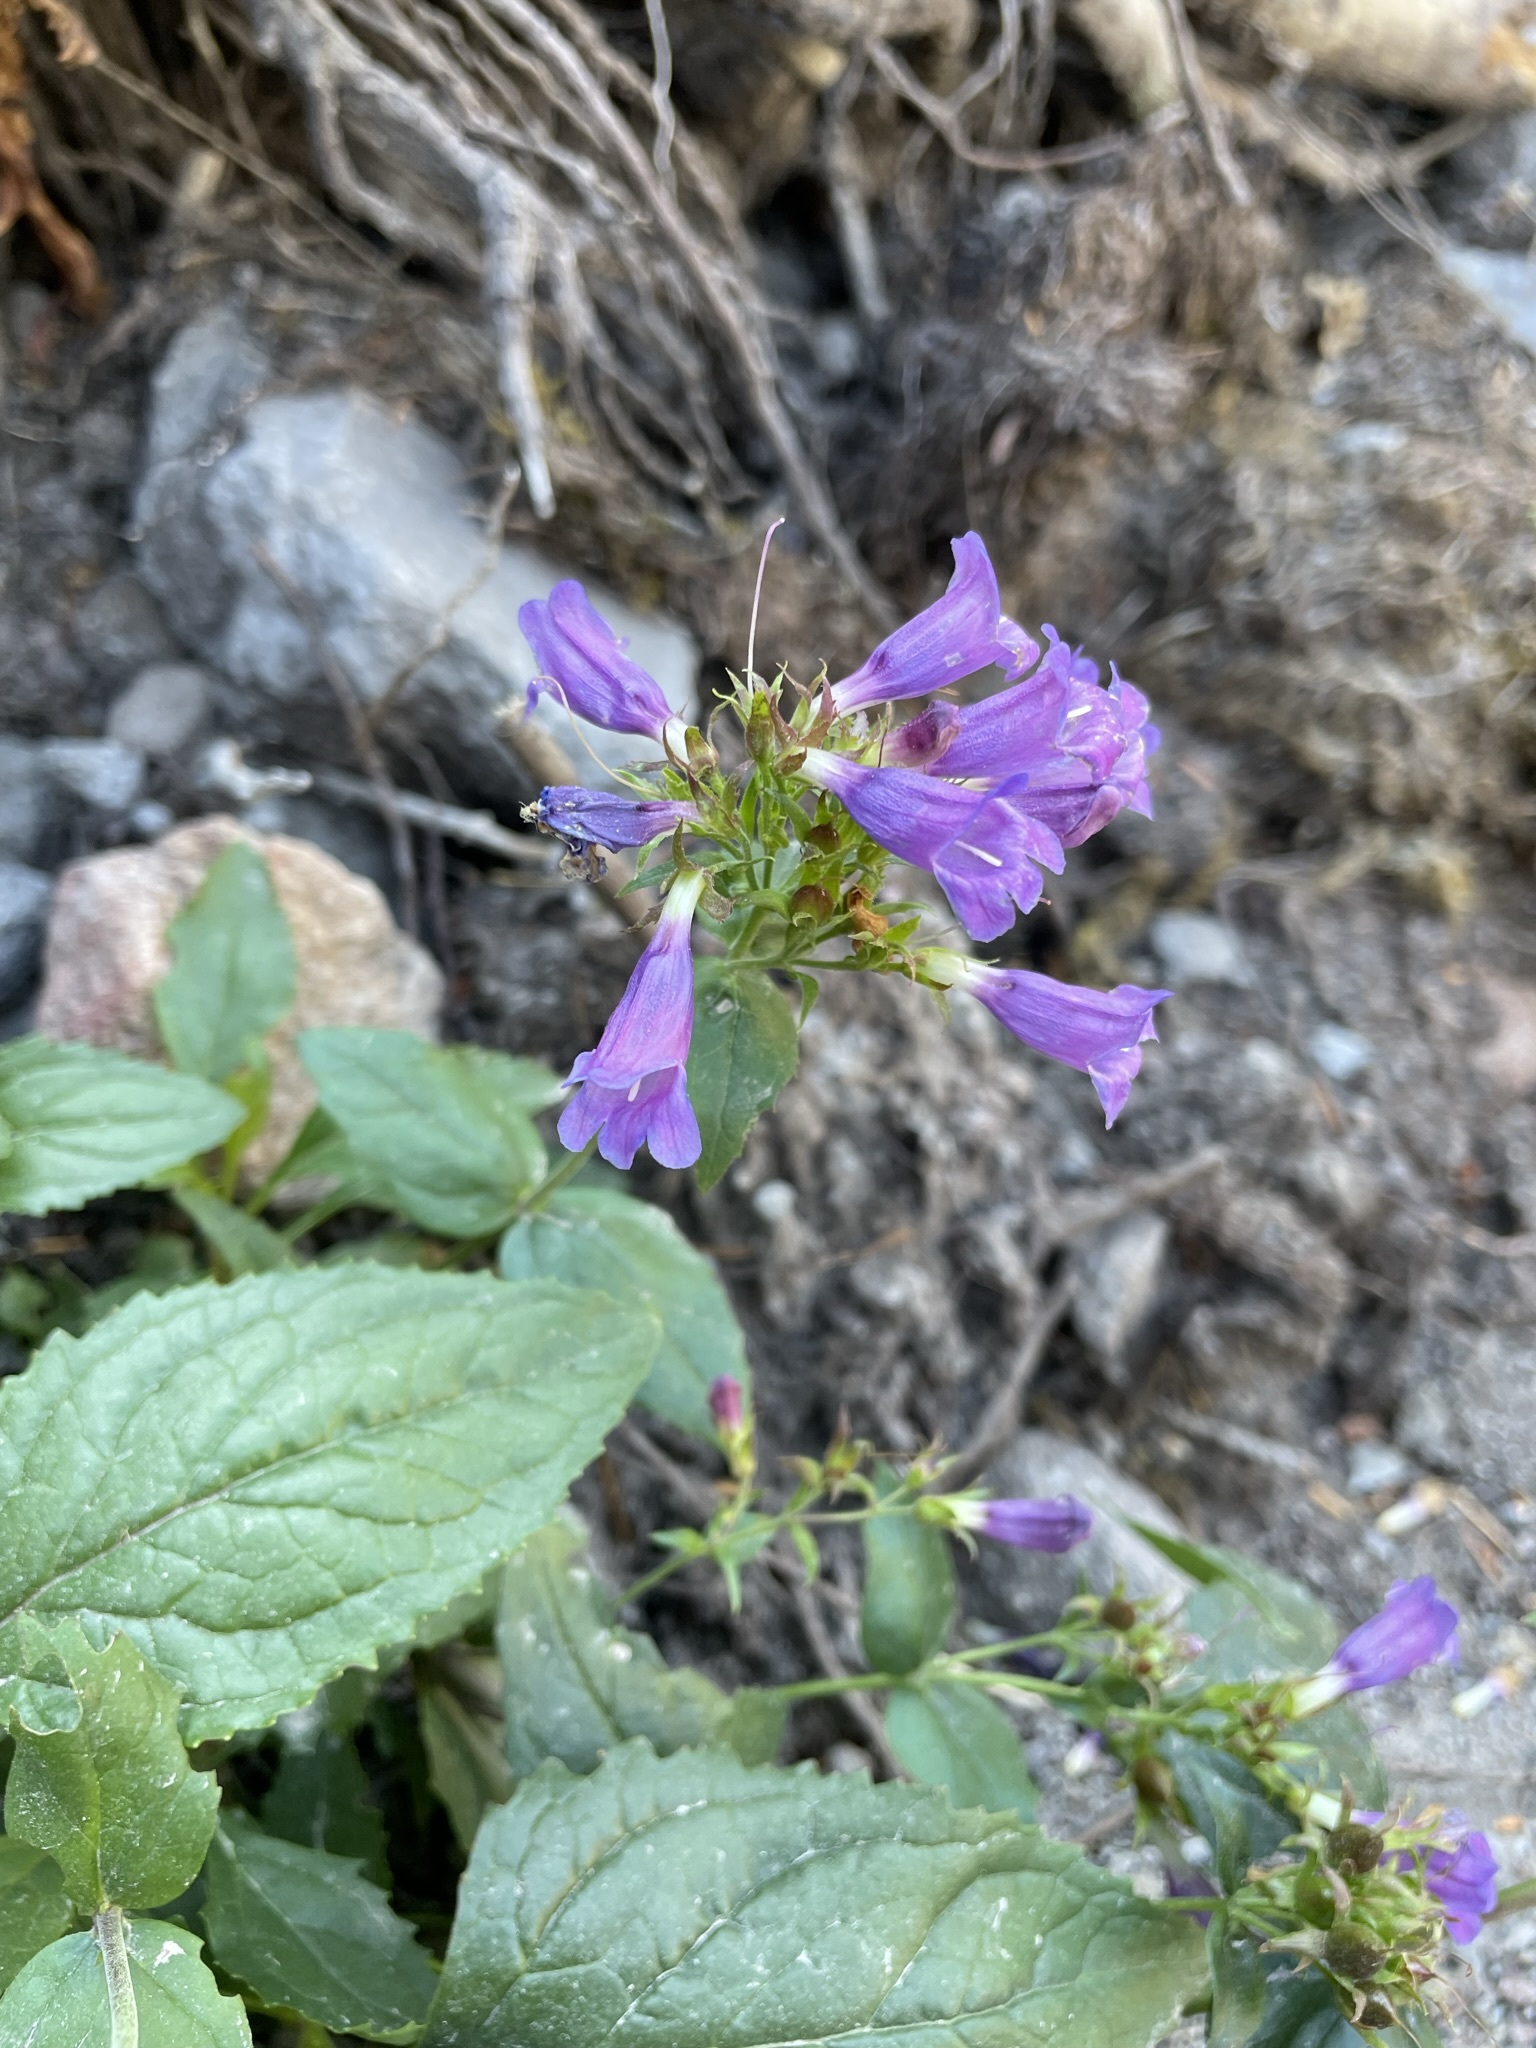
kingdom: Plantae
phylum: Tracheophyta
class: Magnoliopsida
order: Lamiales
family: Plantaginaceae
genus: Penstemon
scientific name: Penstemon serrulatus
